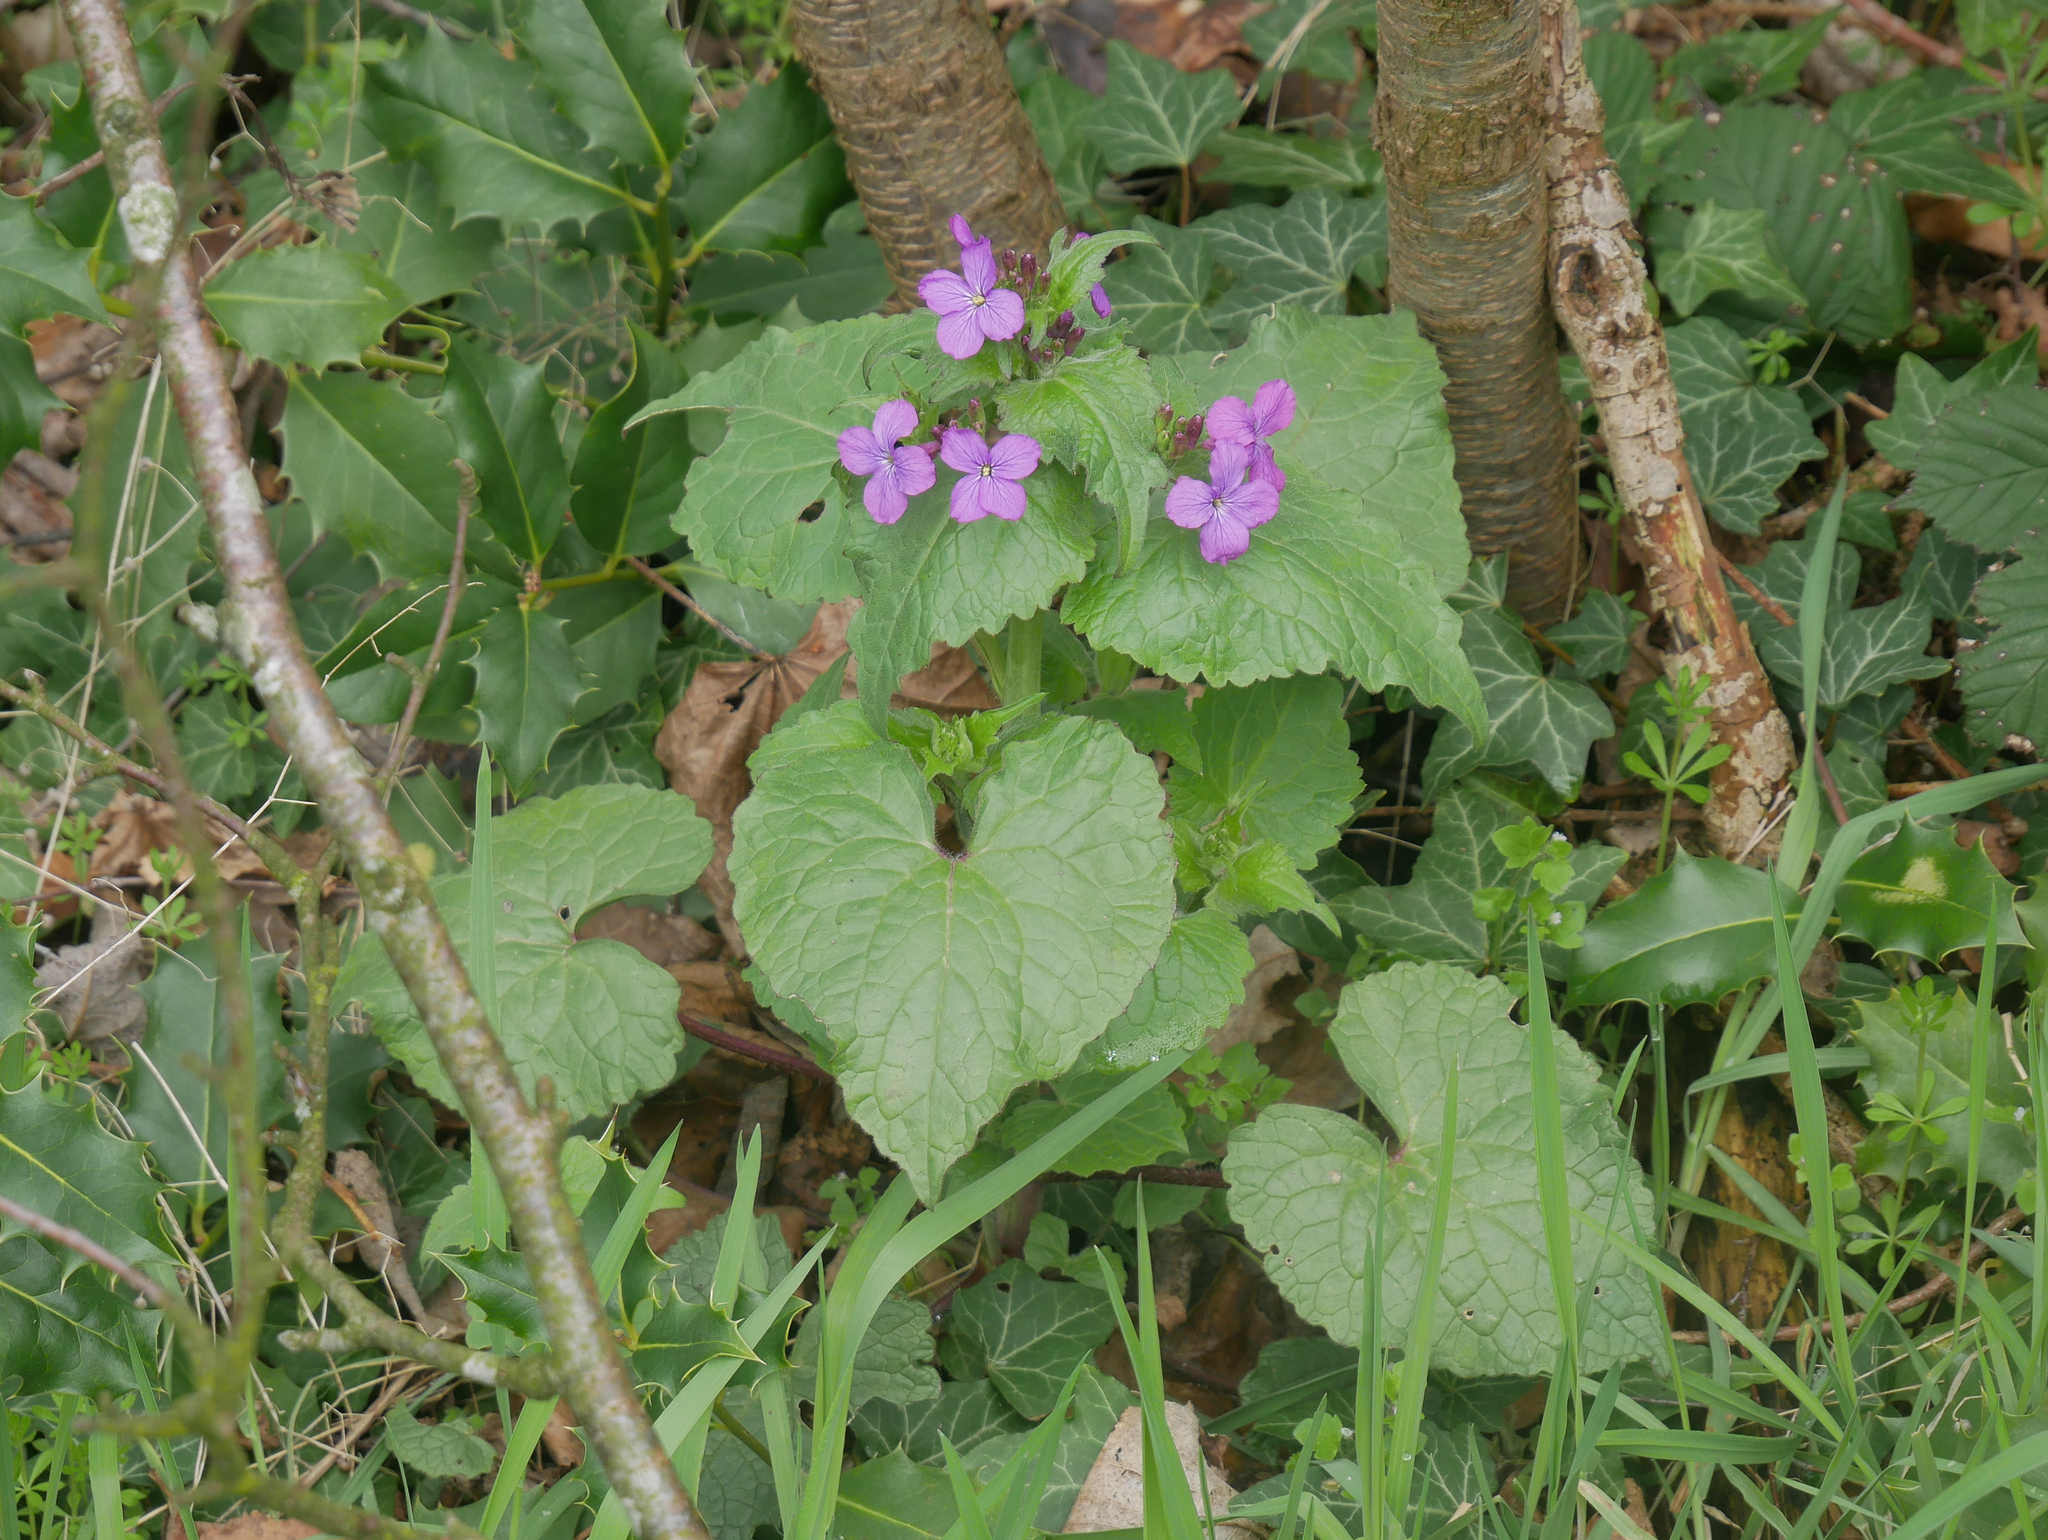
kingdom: Plantae
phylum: Tracheophyta
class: Magnoliopsida
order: Brassicales
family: Brassicaceae
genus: Lunaria
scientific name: Lunaria annua
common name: Honesty
